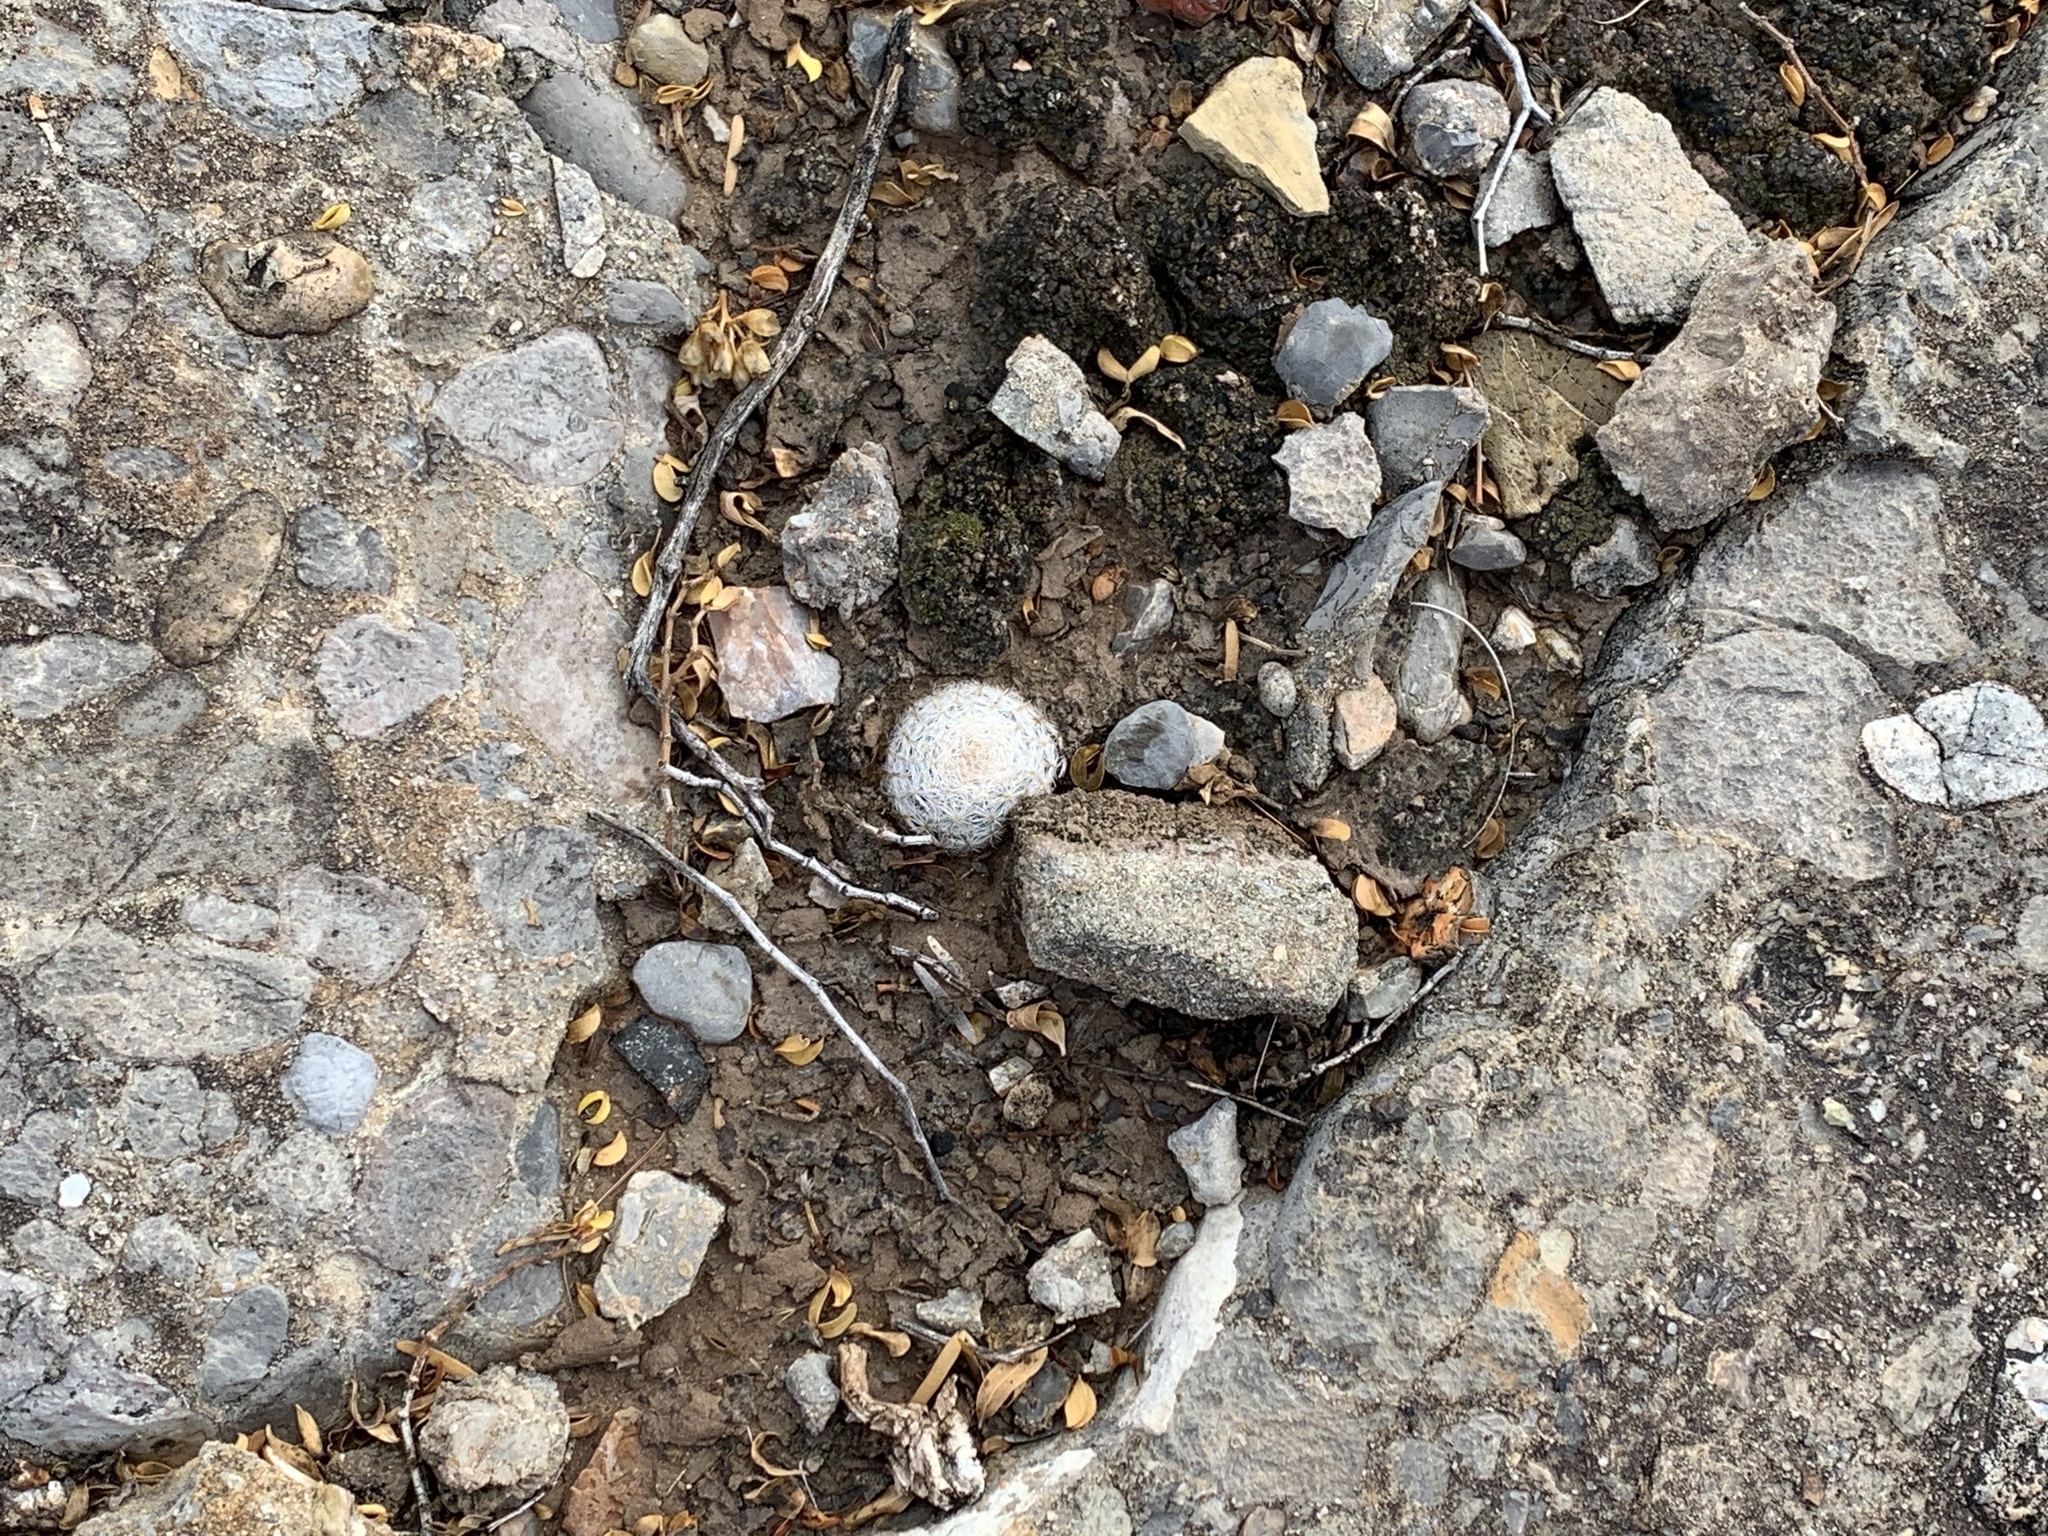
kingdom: Plantae
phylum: Tracheophyta
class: Magnoliopsida
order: Caryophyllales
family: Cactaceae
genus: Mammillaria
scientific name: Mammillaria lasiacantha
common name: Lace-spine nipple cactus
